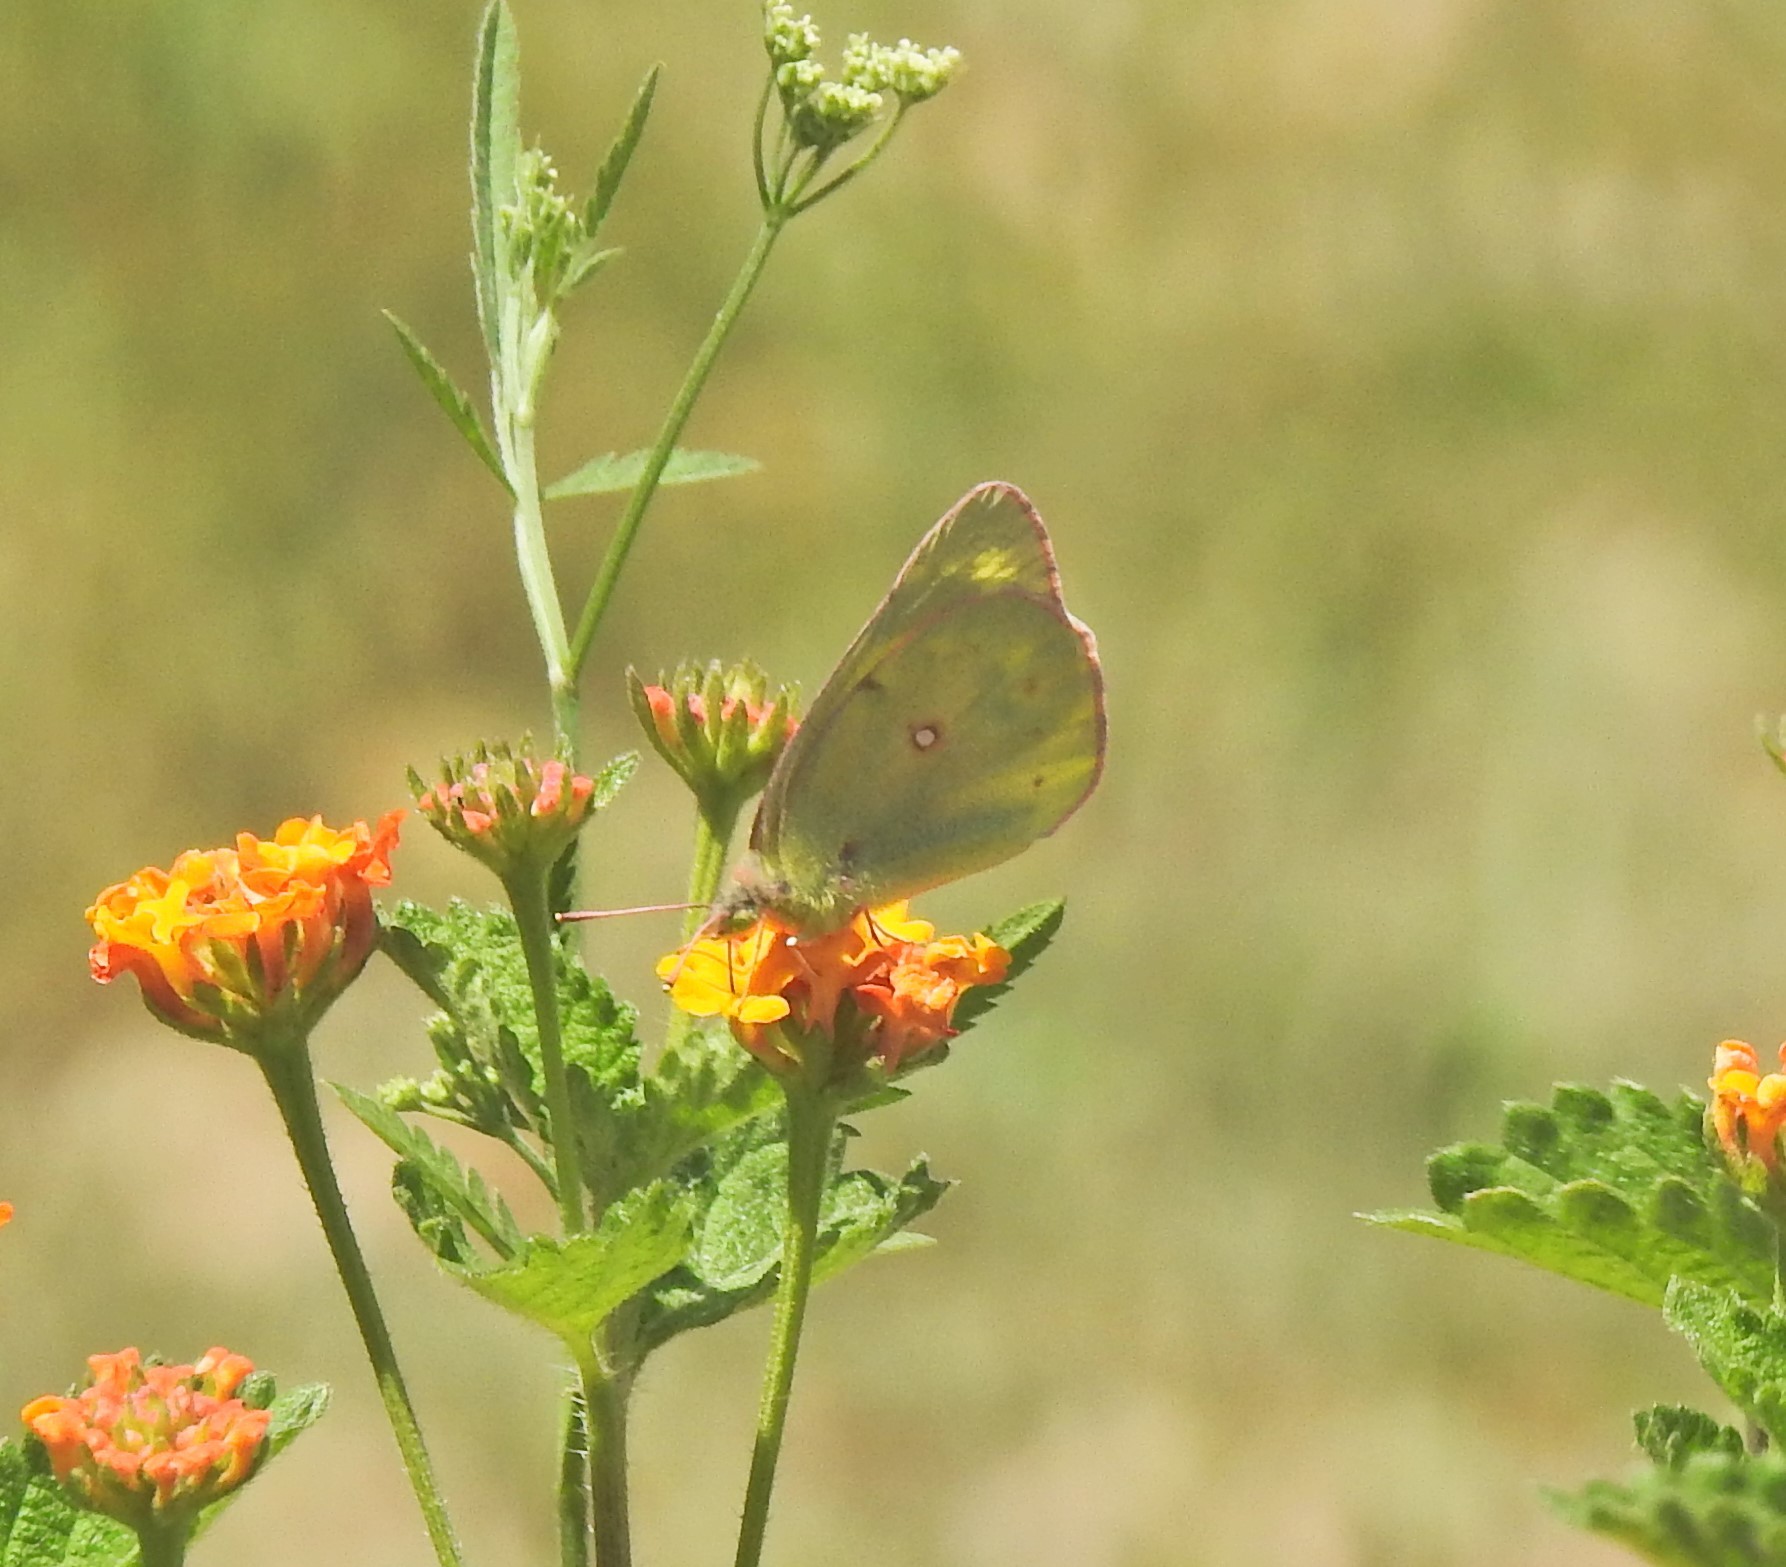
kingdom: Animalia
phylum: Arthropoda
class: Insecta
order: Lepidoptera
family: Pieridae
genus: Colias
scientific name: Colias eurytheme
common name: Alfalfa butterfly
